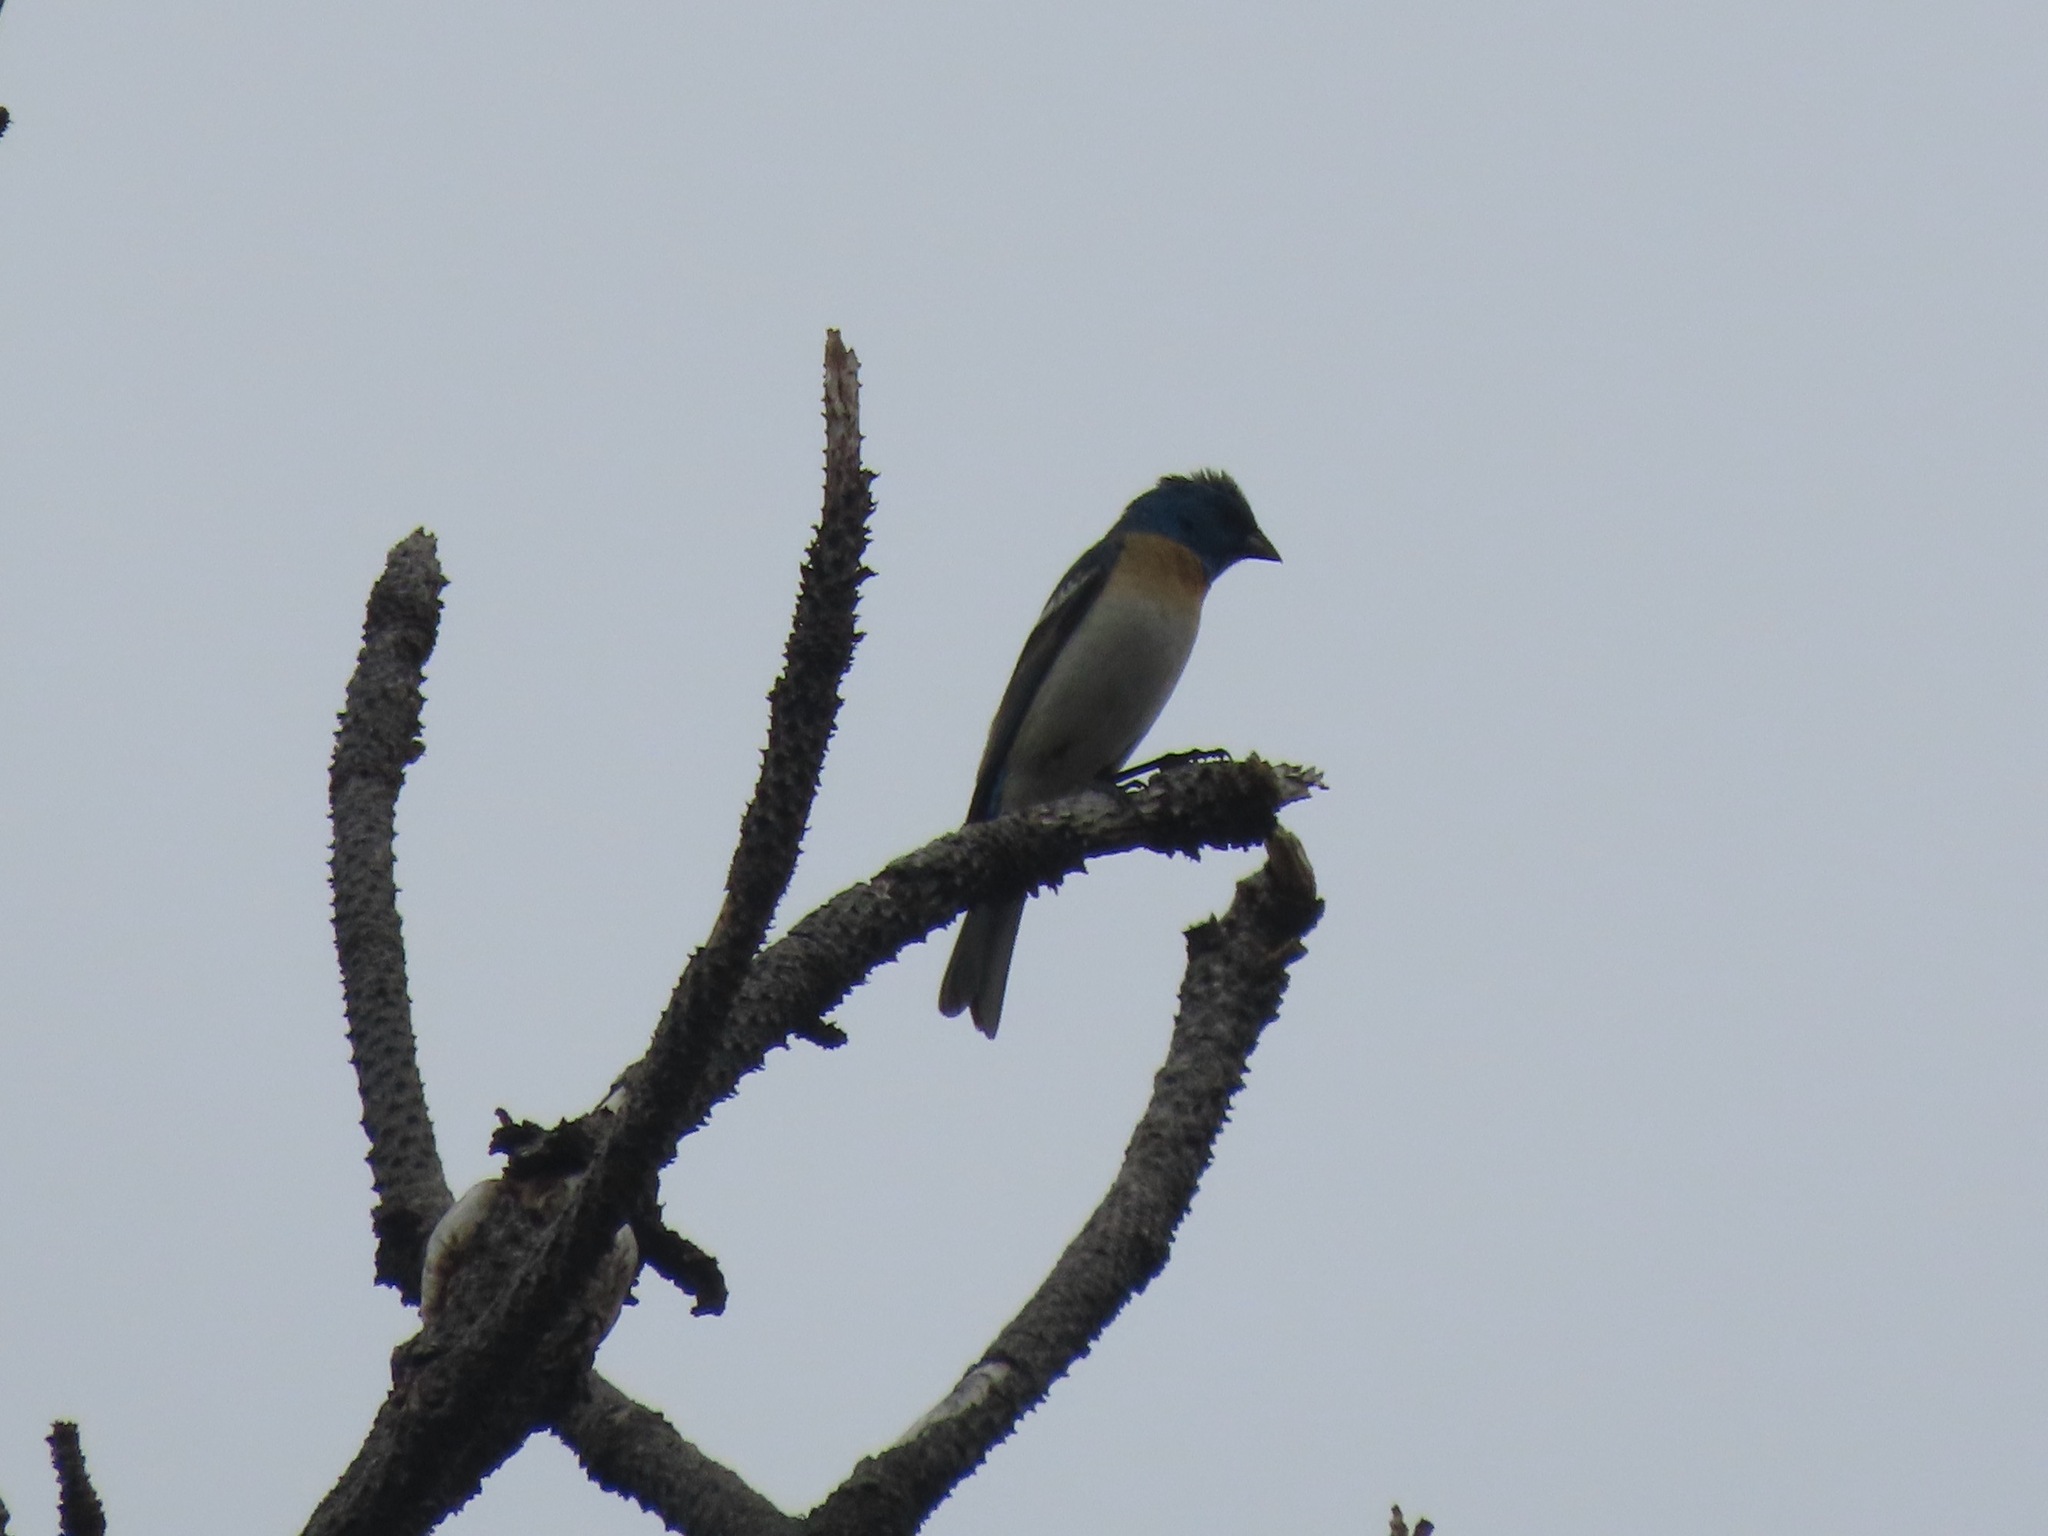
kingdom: Animalia
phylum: Chordata
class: Aves
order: Passeriformes
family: Cardinalidae
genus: Passerina
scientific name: Passerina amoena
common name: Lazuli bunting
